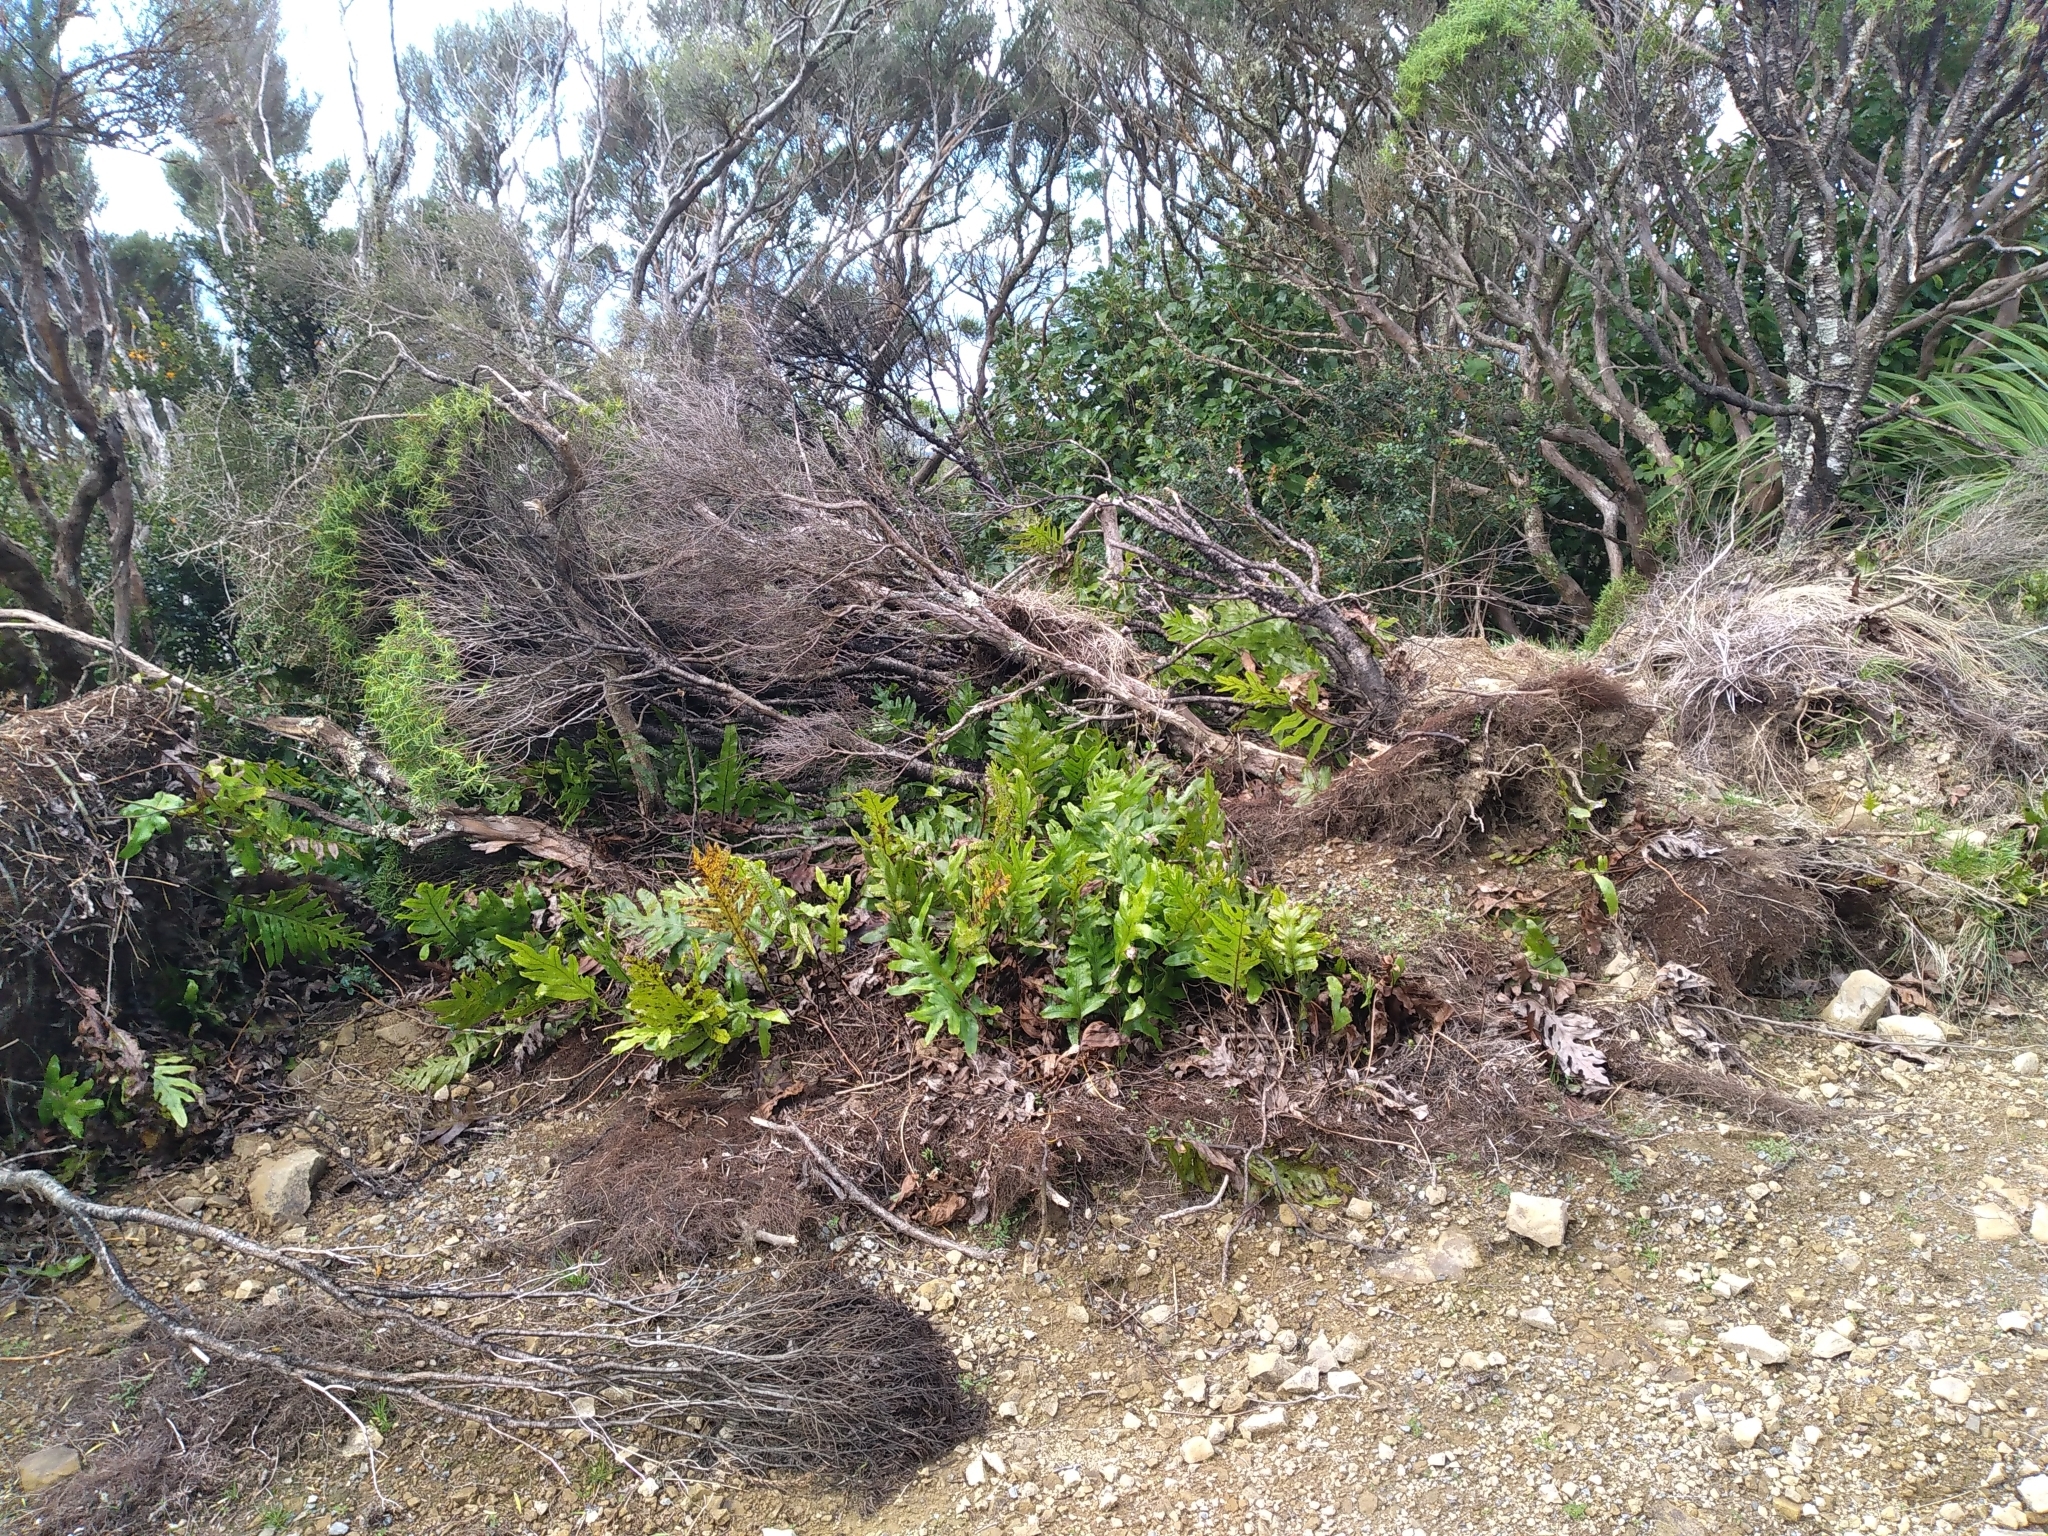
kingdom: Plantae
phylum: Tracheophyta
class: Magnoliopsida
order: Lamiales
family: Plantaginaceae
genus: Veronica
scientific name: Veronica parviflora
